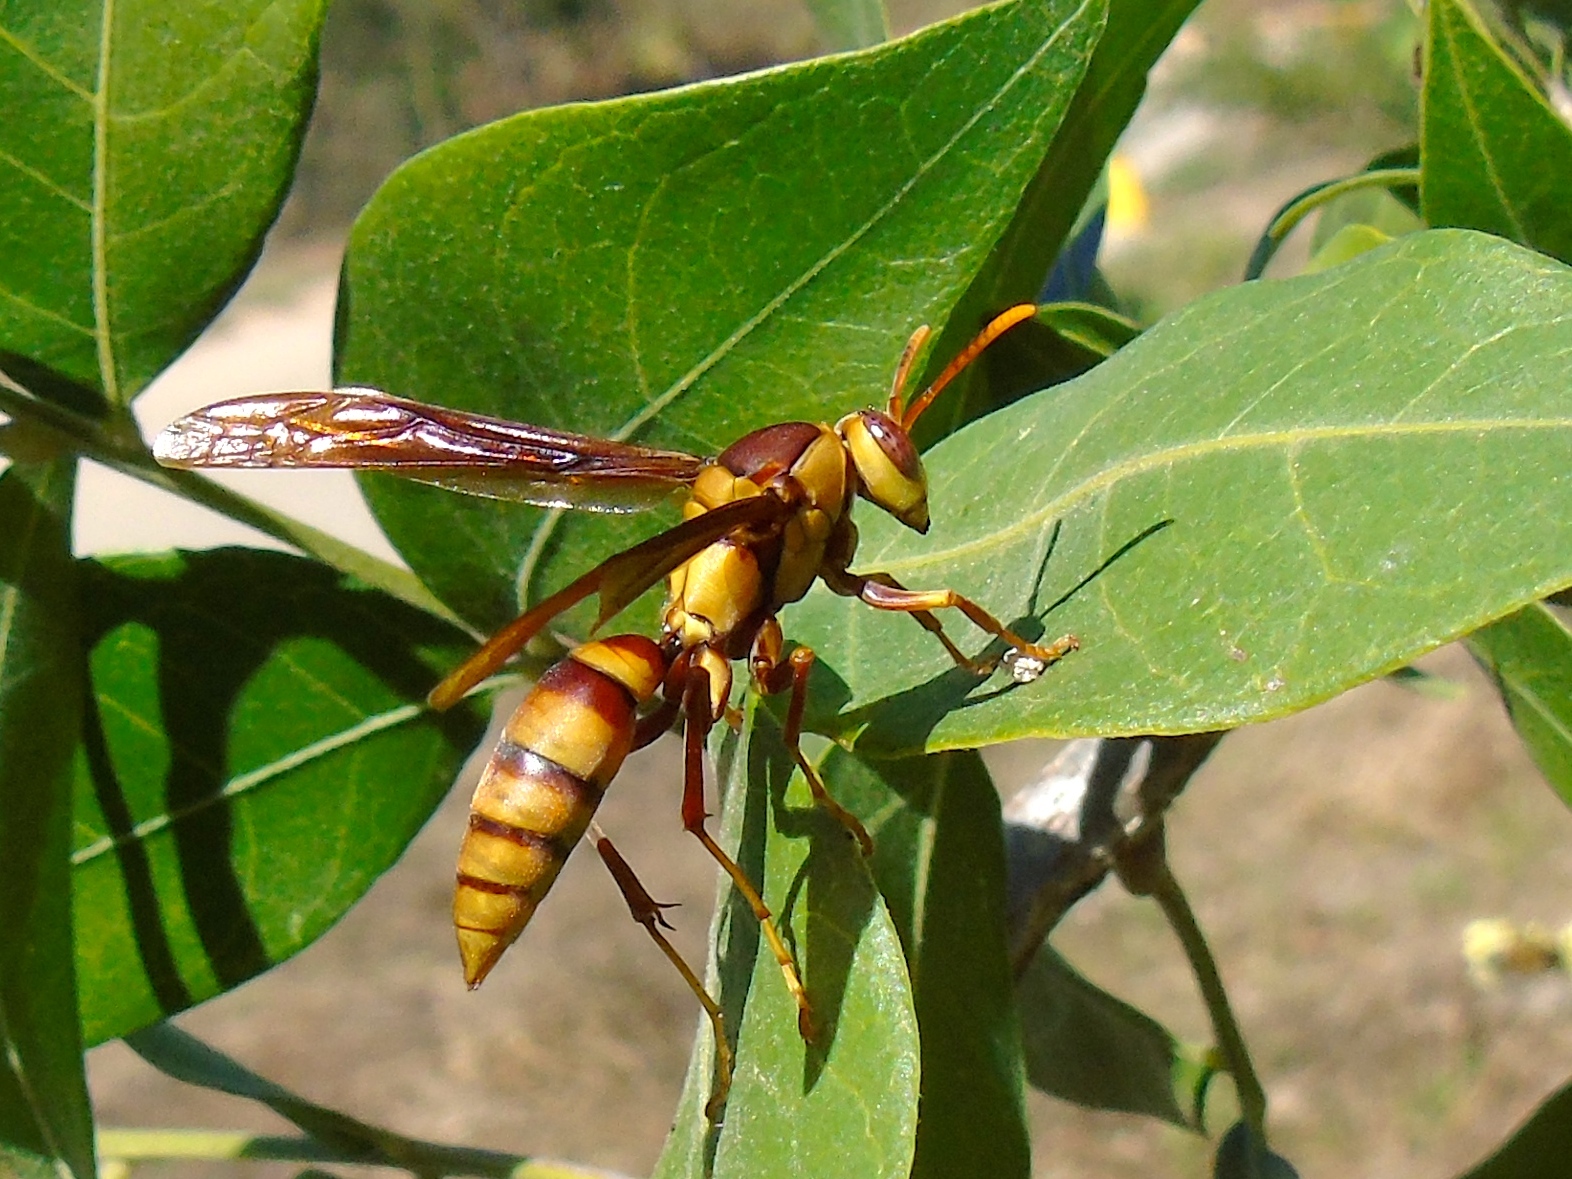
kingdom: Animalia
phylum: Arthropoda
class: Insecta
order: Hymenoptera
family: Eumenidae
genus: Polistes
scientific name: Polistes major
